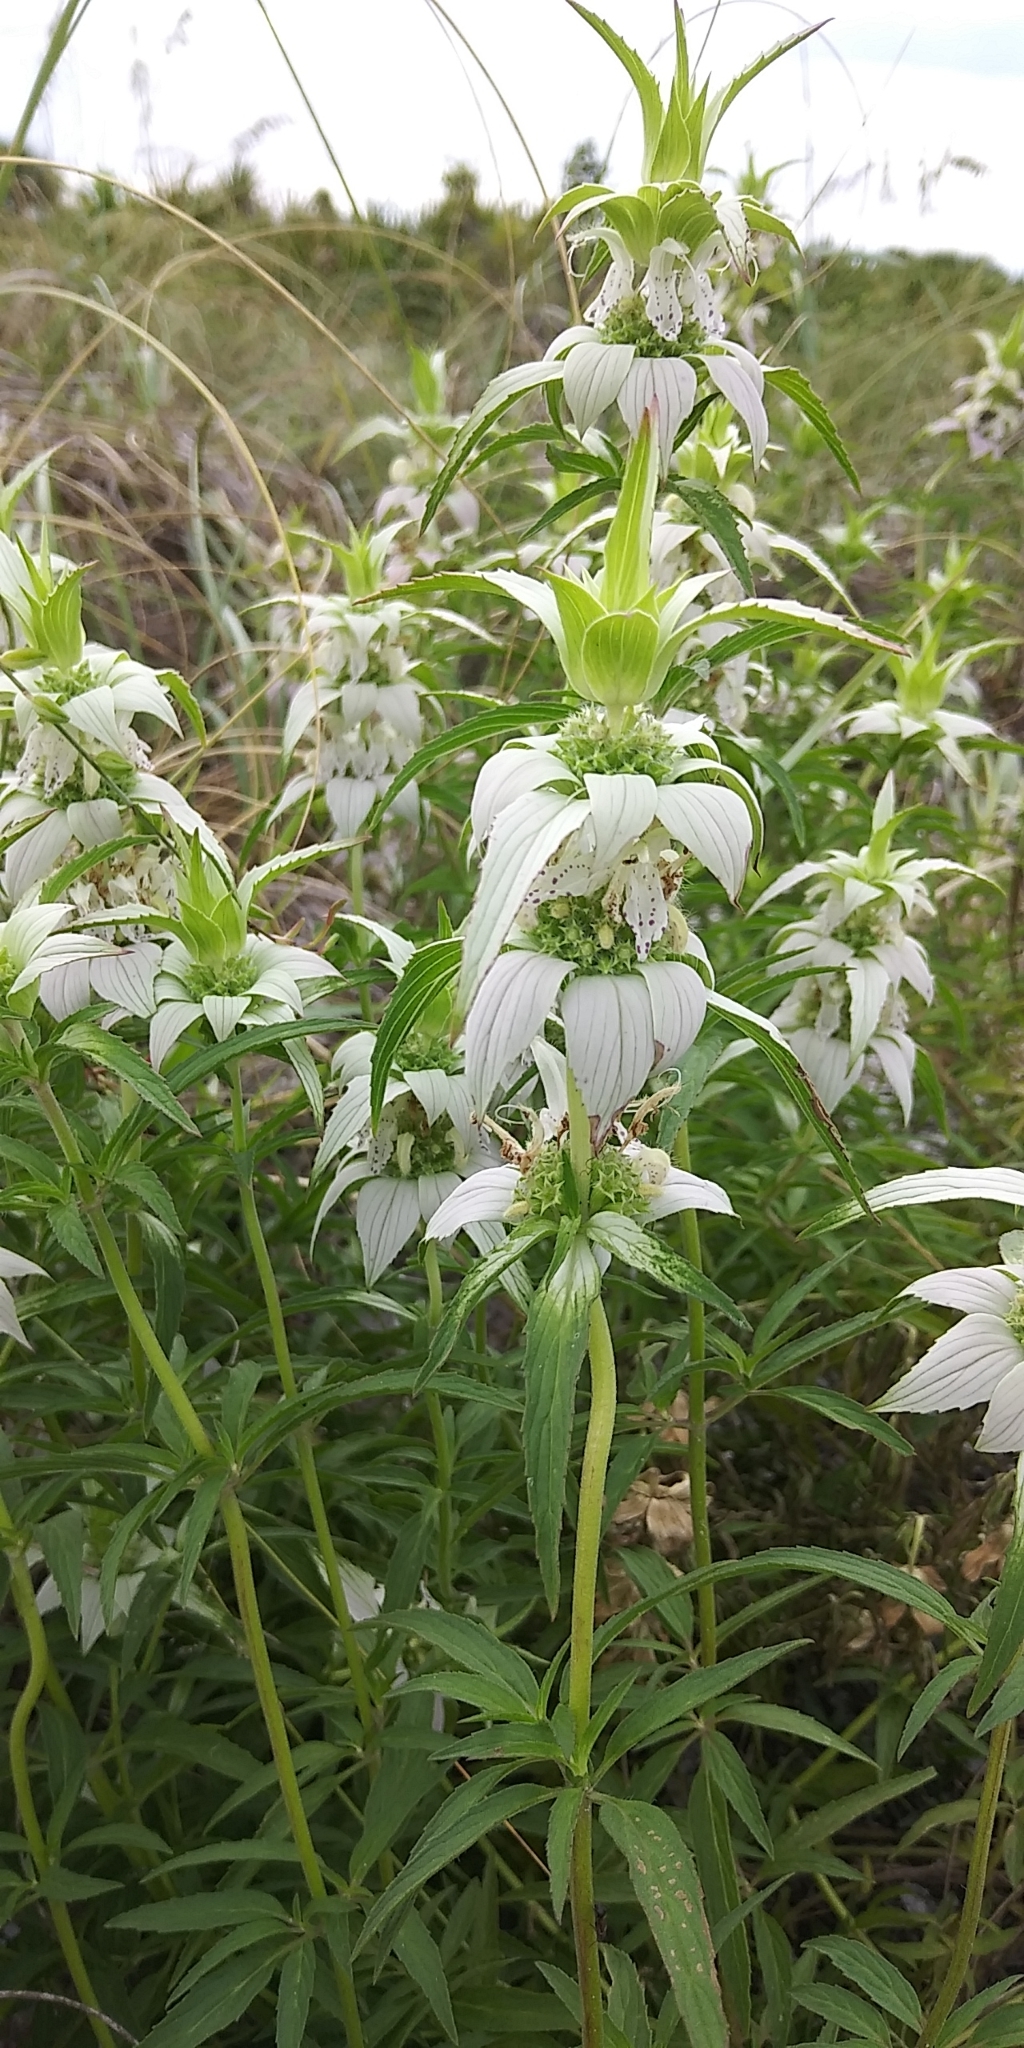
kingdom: Plantae
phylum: Tracheophyta
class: Magnoliopsida
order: Lamiales
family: Lamiaceae
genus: Monarda
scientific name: Monarda punctata
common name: Dotted monarda
